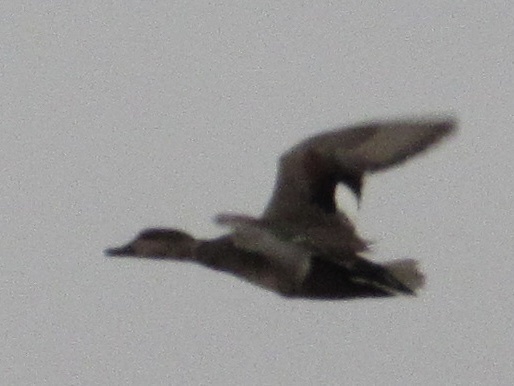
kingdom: Animalia
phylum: Chordata
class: Aves
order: Anseriformes
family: Anatidae
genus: Mareca
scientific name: Mareca strepera
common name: Gadwall
